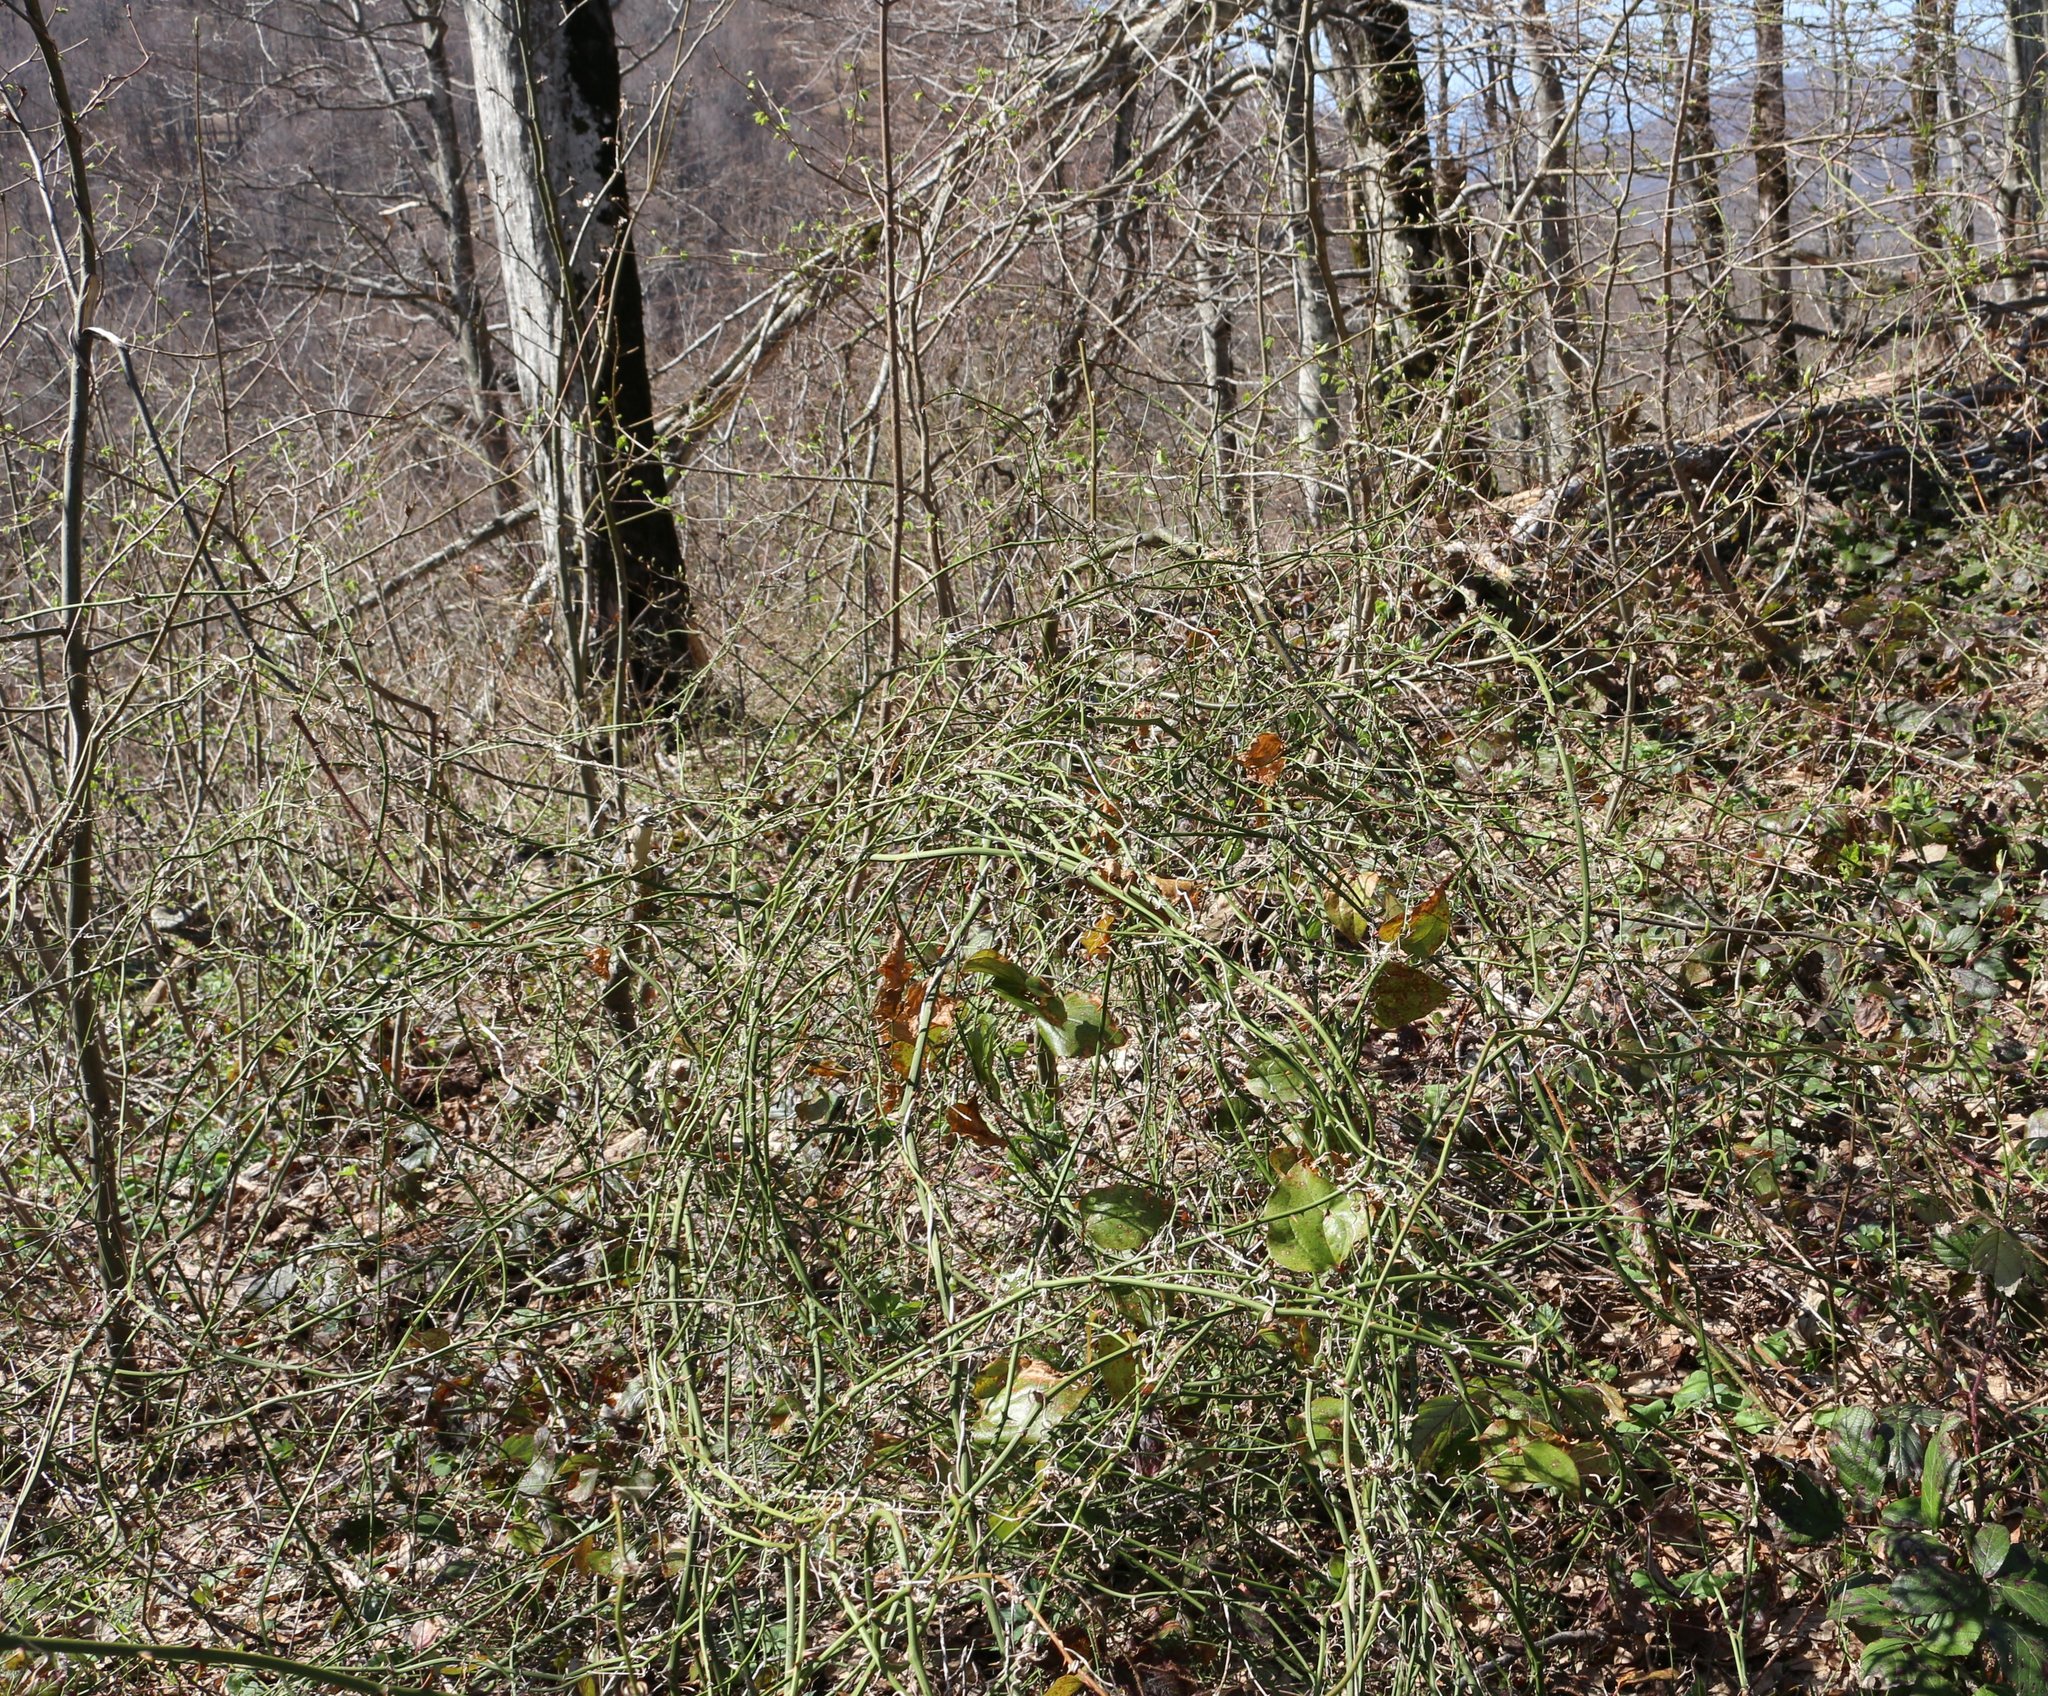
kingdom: Plantae
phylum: Tracheophyta
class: Liliopsida
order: Liliales
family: Smilacaceae
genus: Smilax
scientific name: Smilax excelsa
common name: Larger smilax
